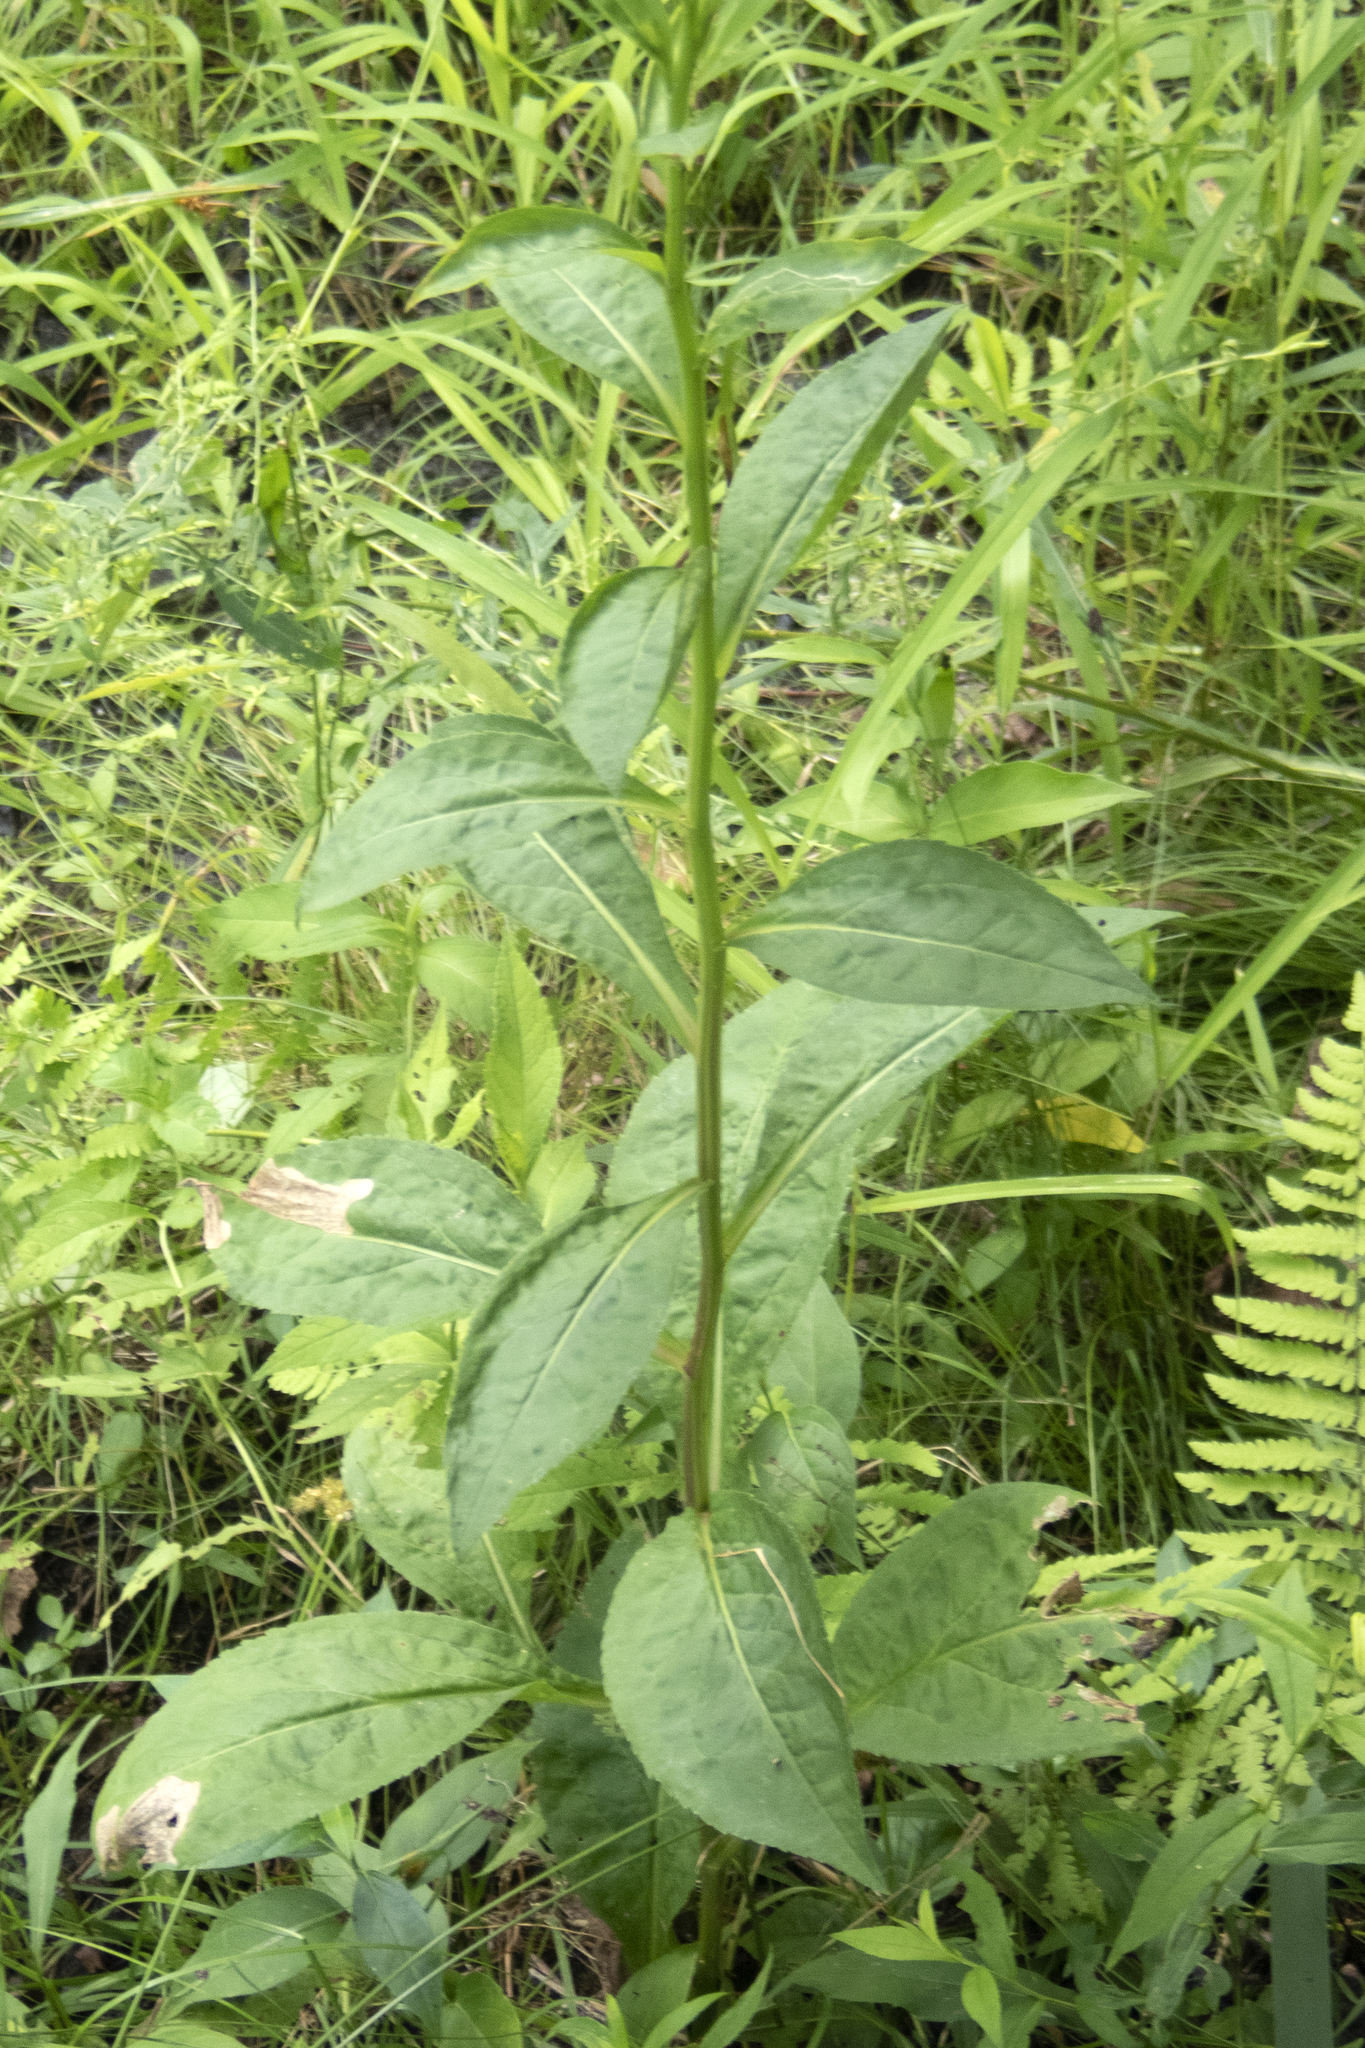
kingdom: Plantae
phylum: Tracheophyta
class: Magnoliopsida
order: Asterales
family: Asteraceae
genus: Solidago
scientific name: Solidago patula
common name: Rough-leaf goldenrod
